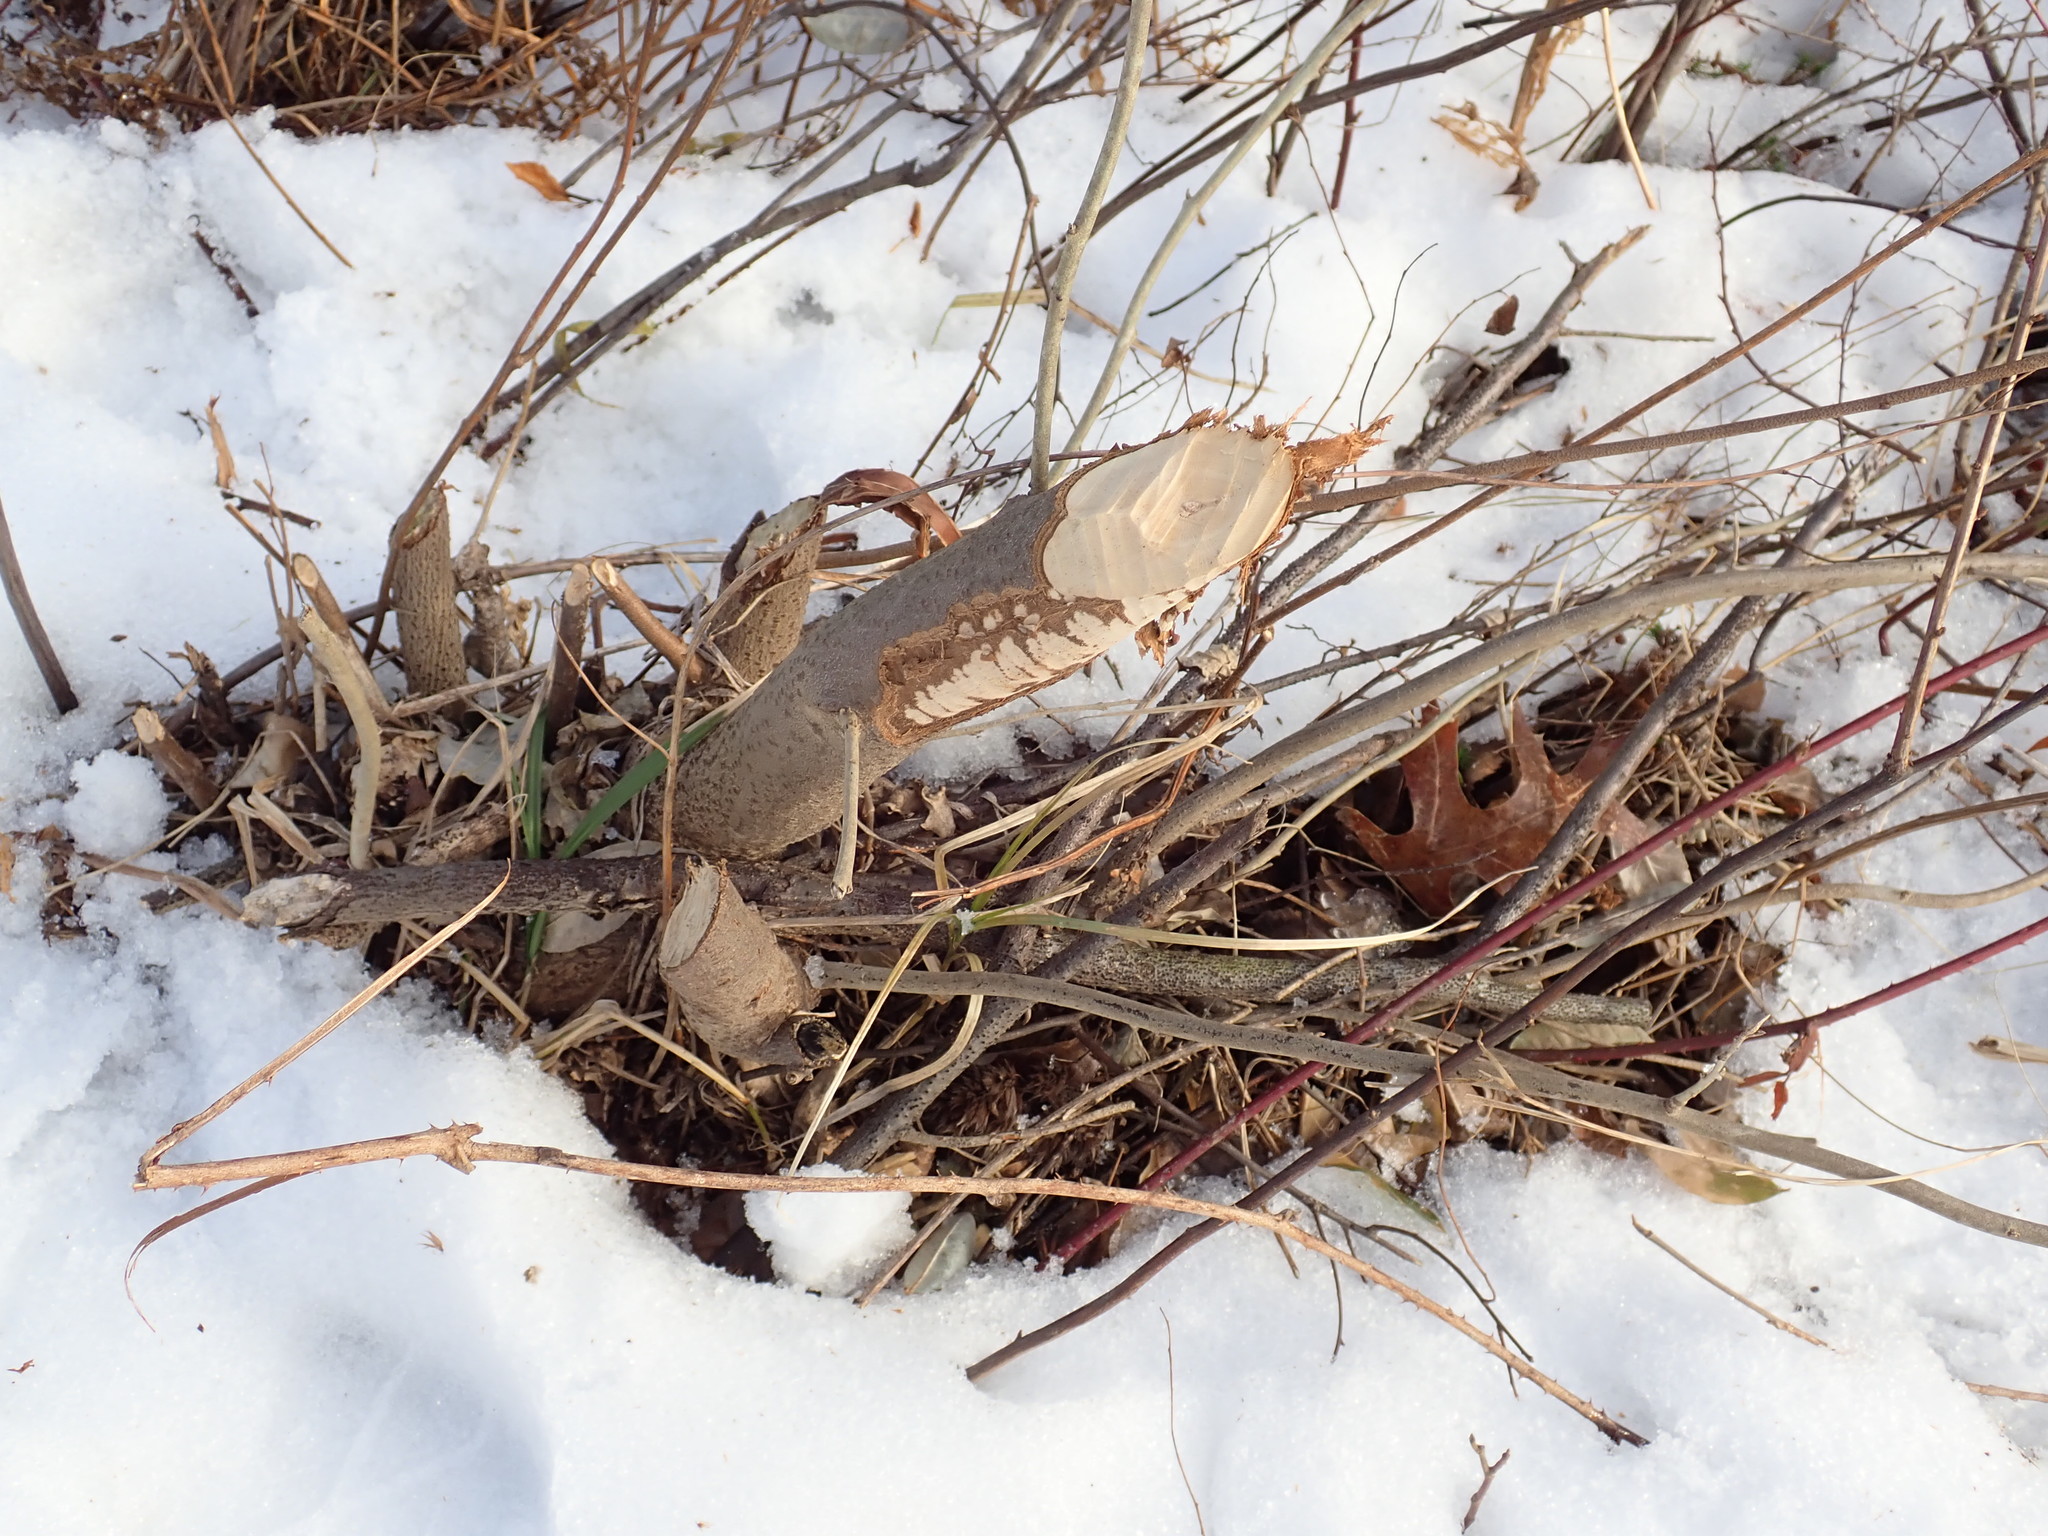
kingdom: Animalia
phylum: Chordata
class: Mammalia
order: Rodentia
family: Castoridae
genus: Castor
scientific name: Castor canadensis
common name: American beaver
